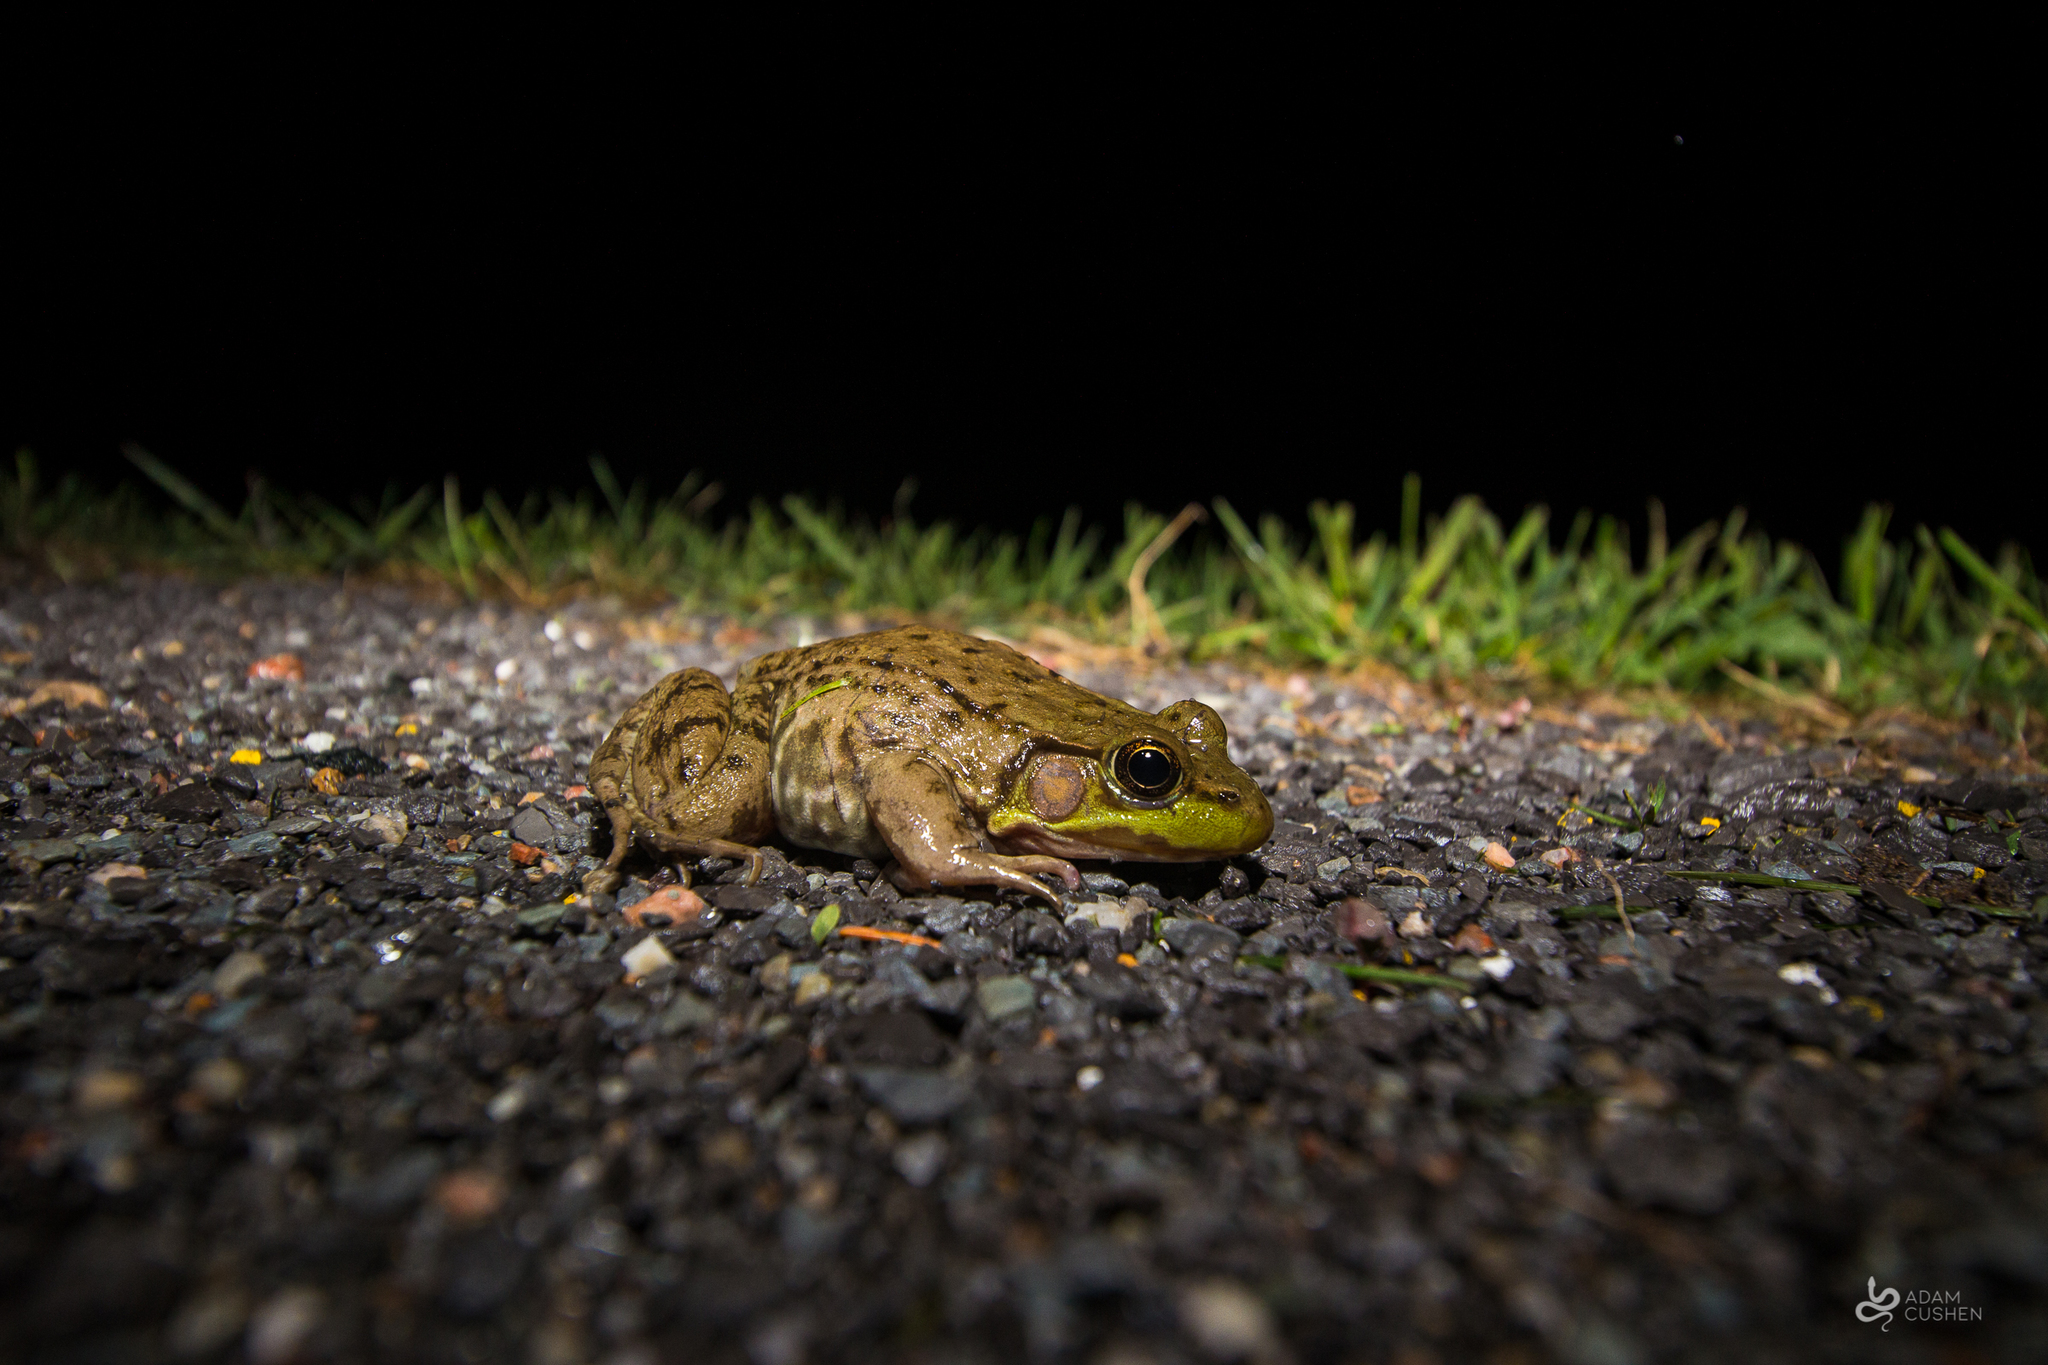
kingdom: Animalia
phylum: Chordata
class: Amphibia
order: Anura
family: Ranidae
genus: Lithobates
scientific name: Lithobates clamitans
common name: Green frog
